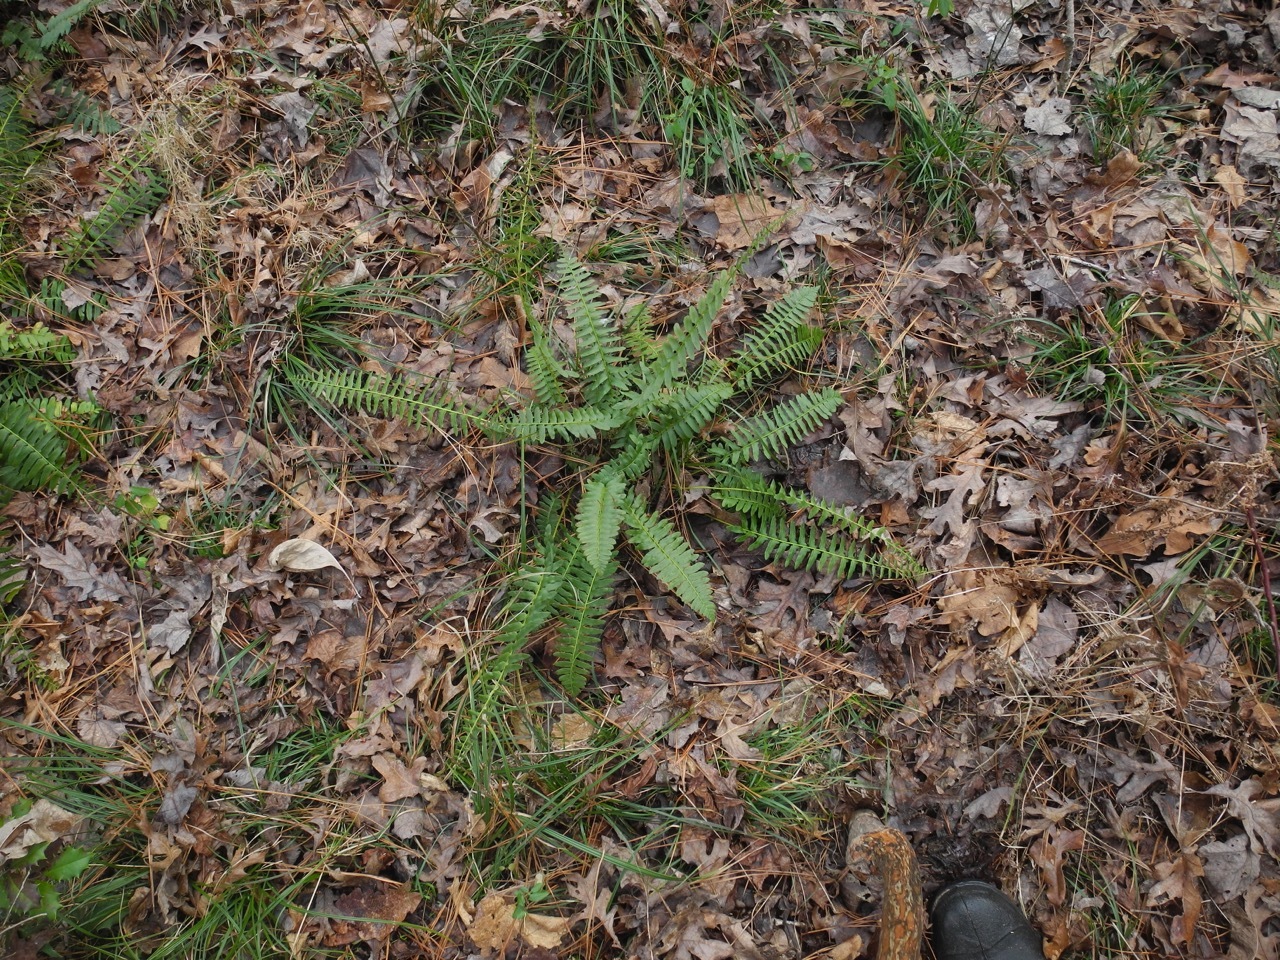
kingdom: Plantae
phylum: Tracheophyta
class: Polypodiopsida
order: Polypodiales
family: Dryopteridaceae
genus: Polystichum
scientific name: Polystichum acrostichoides
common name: Christmas fern
